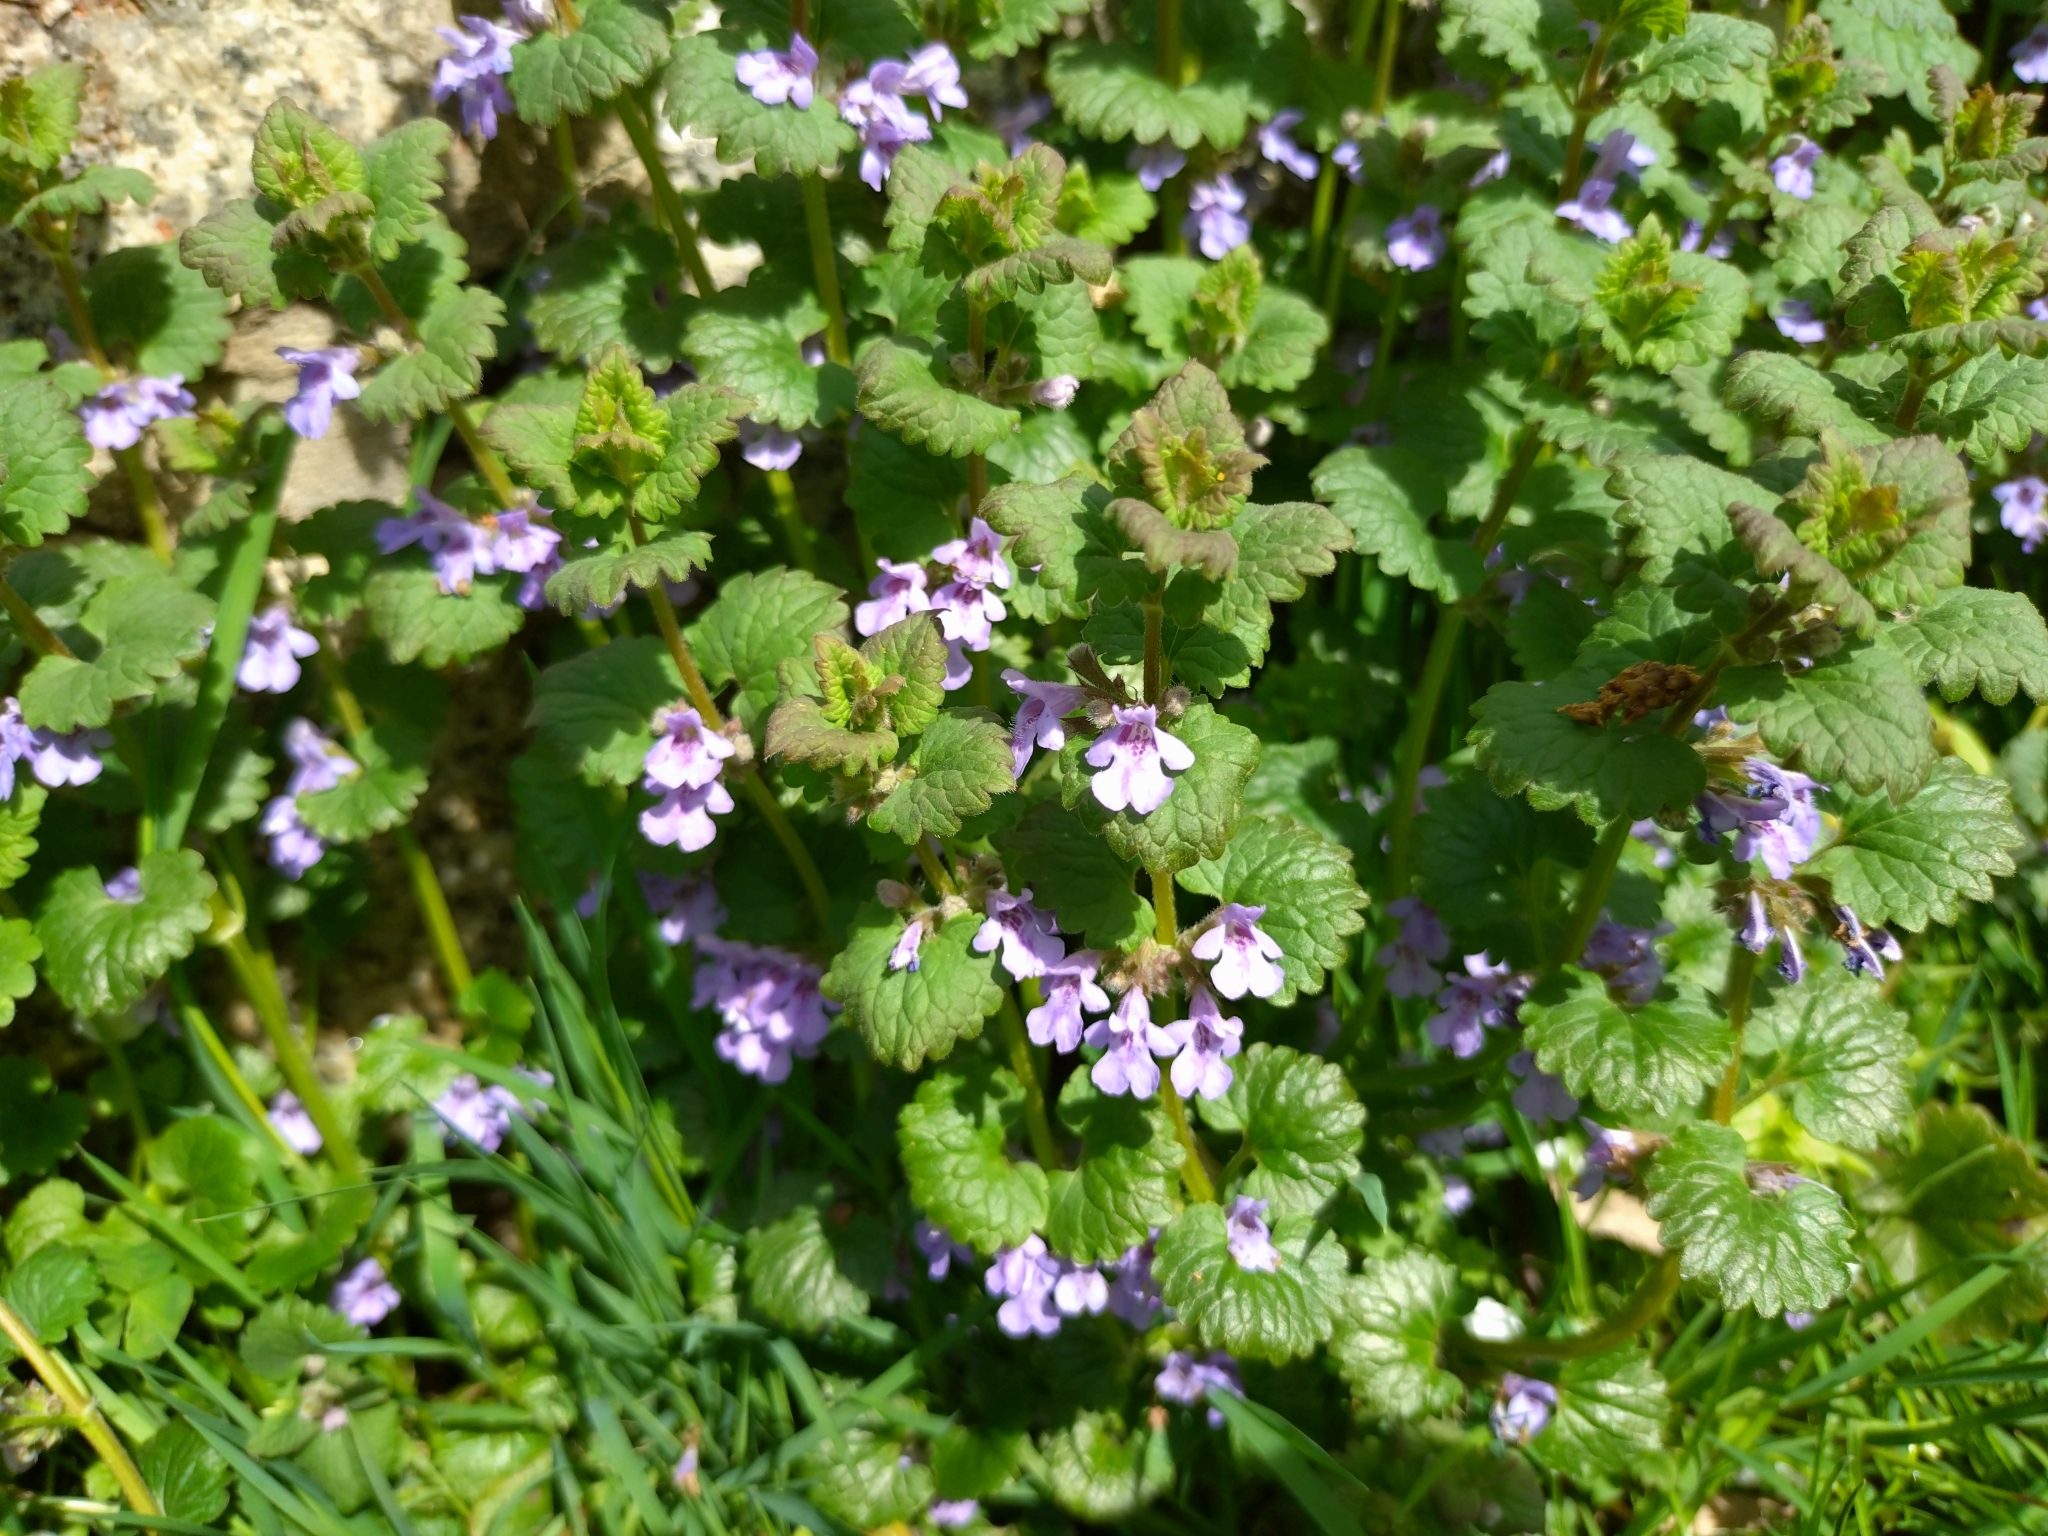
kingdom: Plantae
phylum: Tracheophyta
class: Magnoliopsida
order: Lamiales
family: Lamiaceae
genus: Glechoma
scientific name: Glechoma hederacea
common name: Ground ivy
